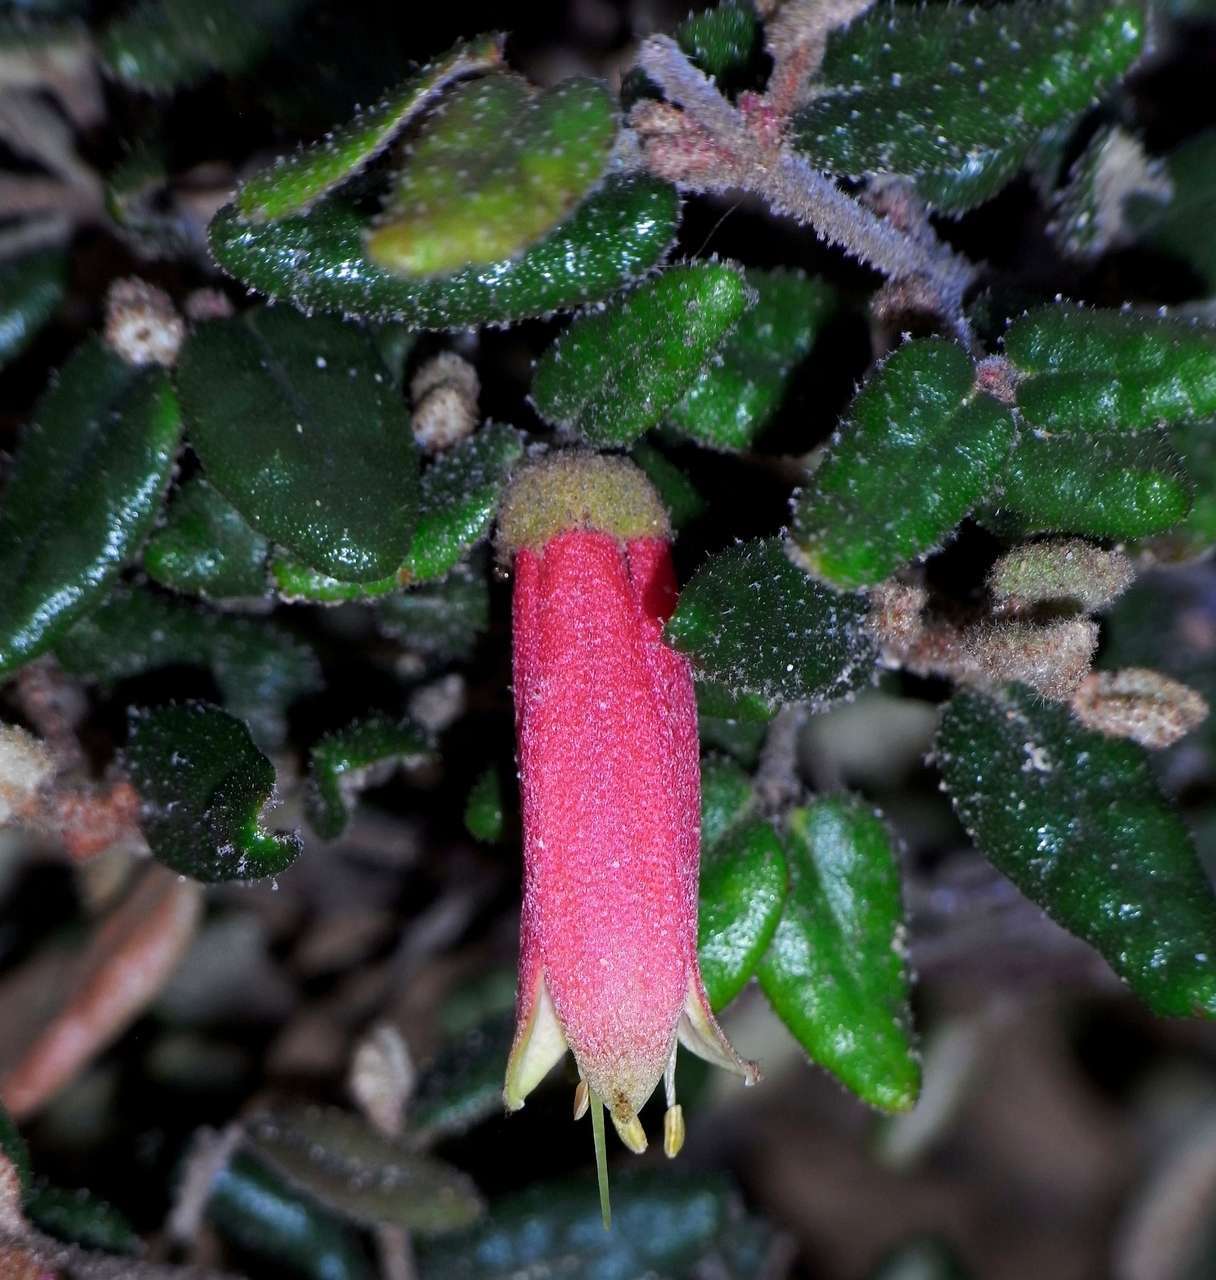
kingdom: Plantae
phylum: Tracheophyta
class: Magnoliopsida
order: Sapindales
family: Rutaceae
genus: Correa
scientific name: Correa reflexa
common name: Common correa
